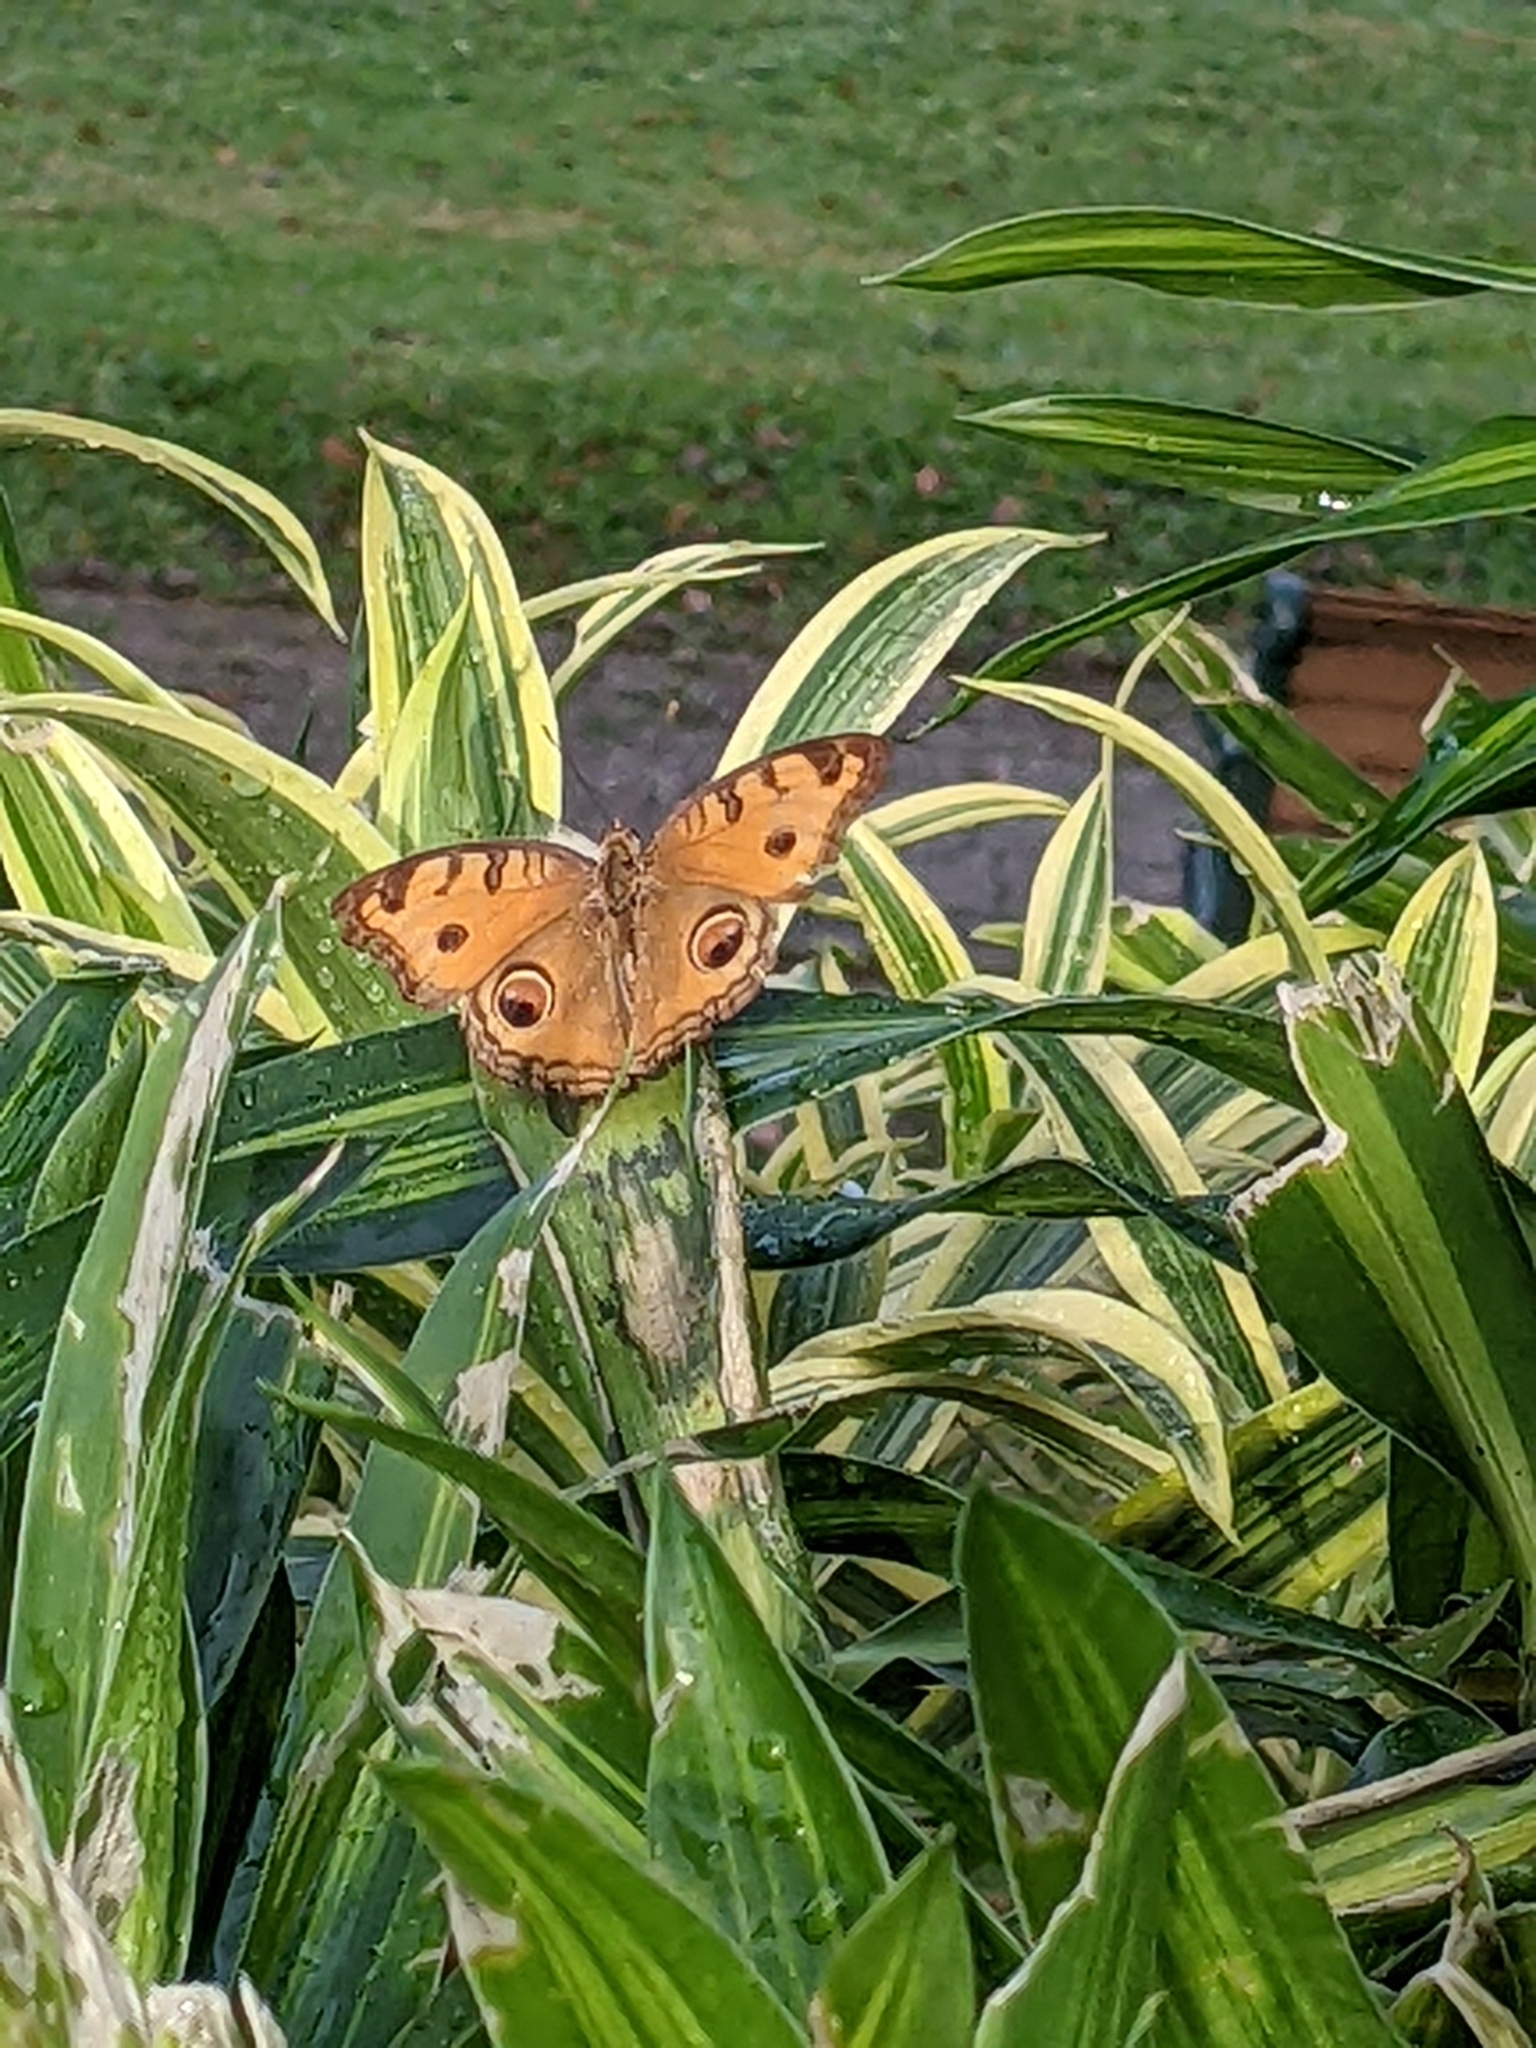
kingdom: Animalia
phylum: Arthropoda
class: Insecta
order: Lepidoptera
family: Nymphalidae
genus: Junonia
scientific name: Junonia almana
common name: Peacock pansy
